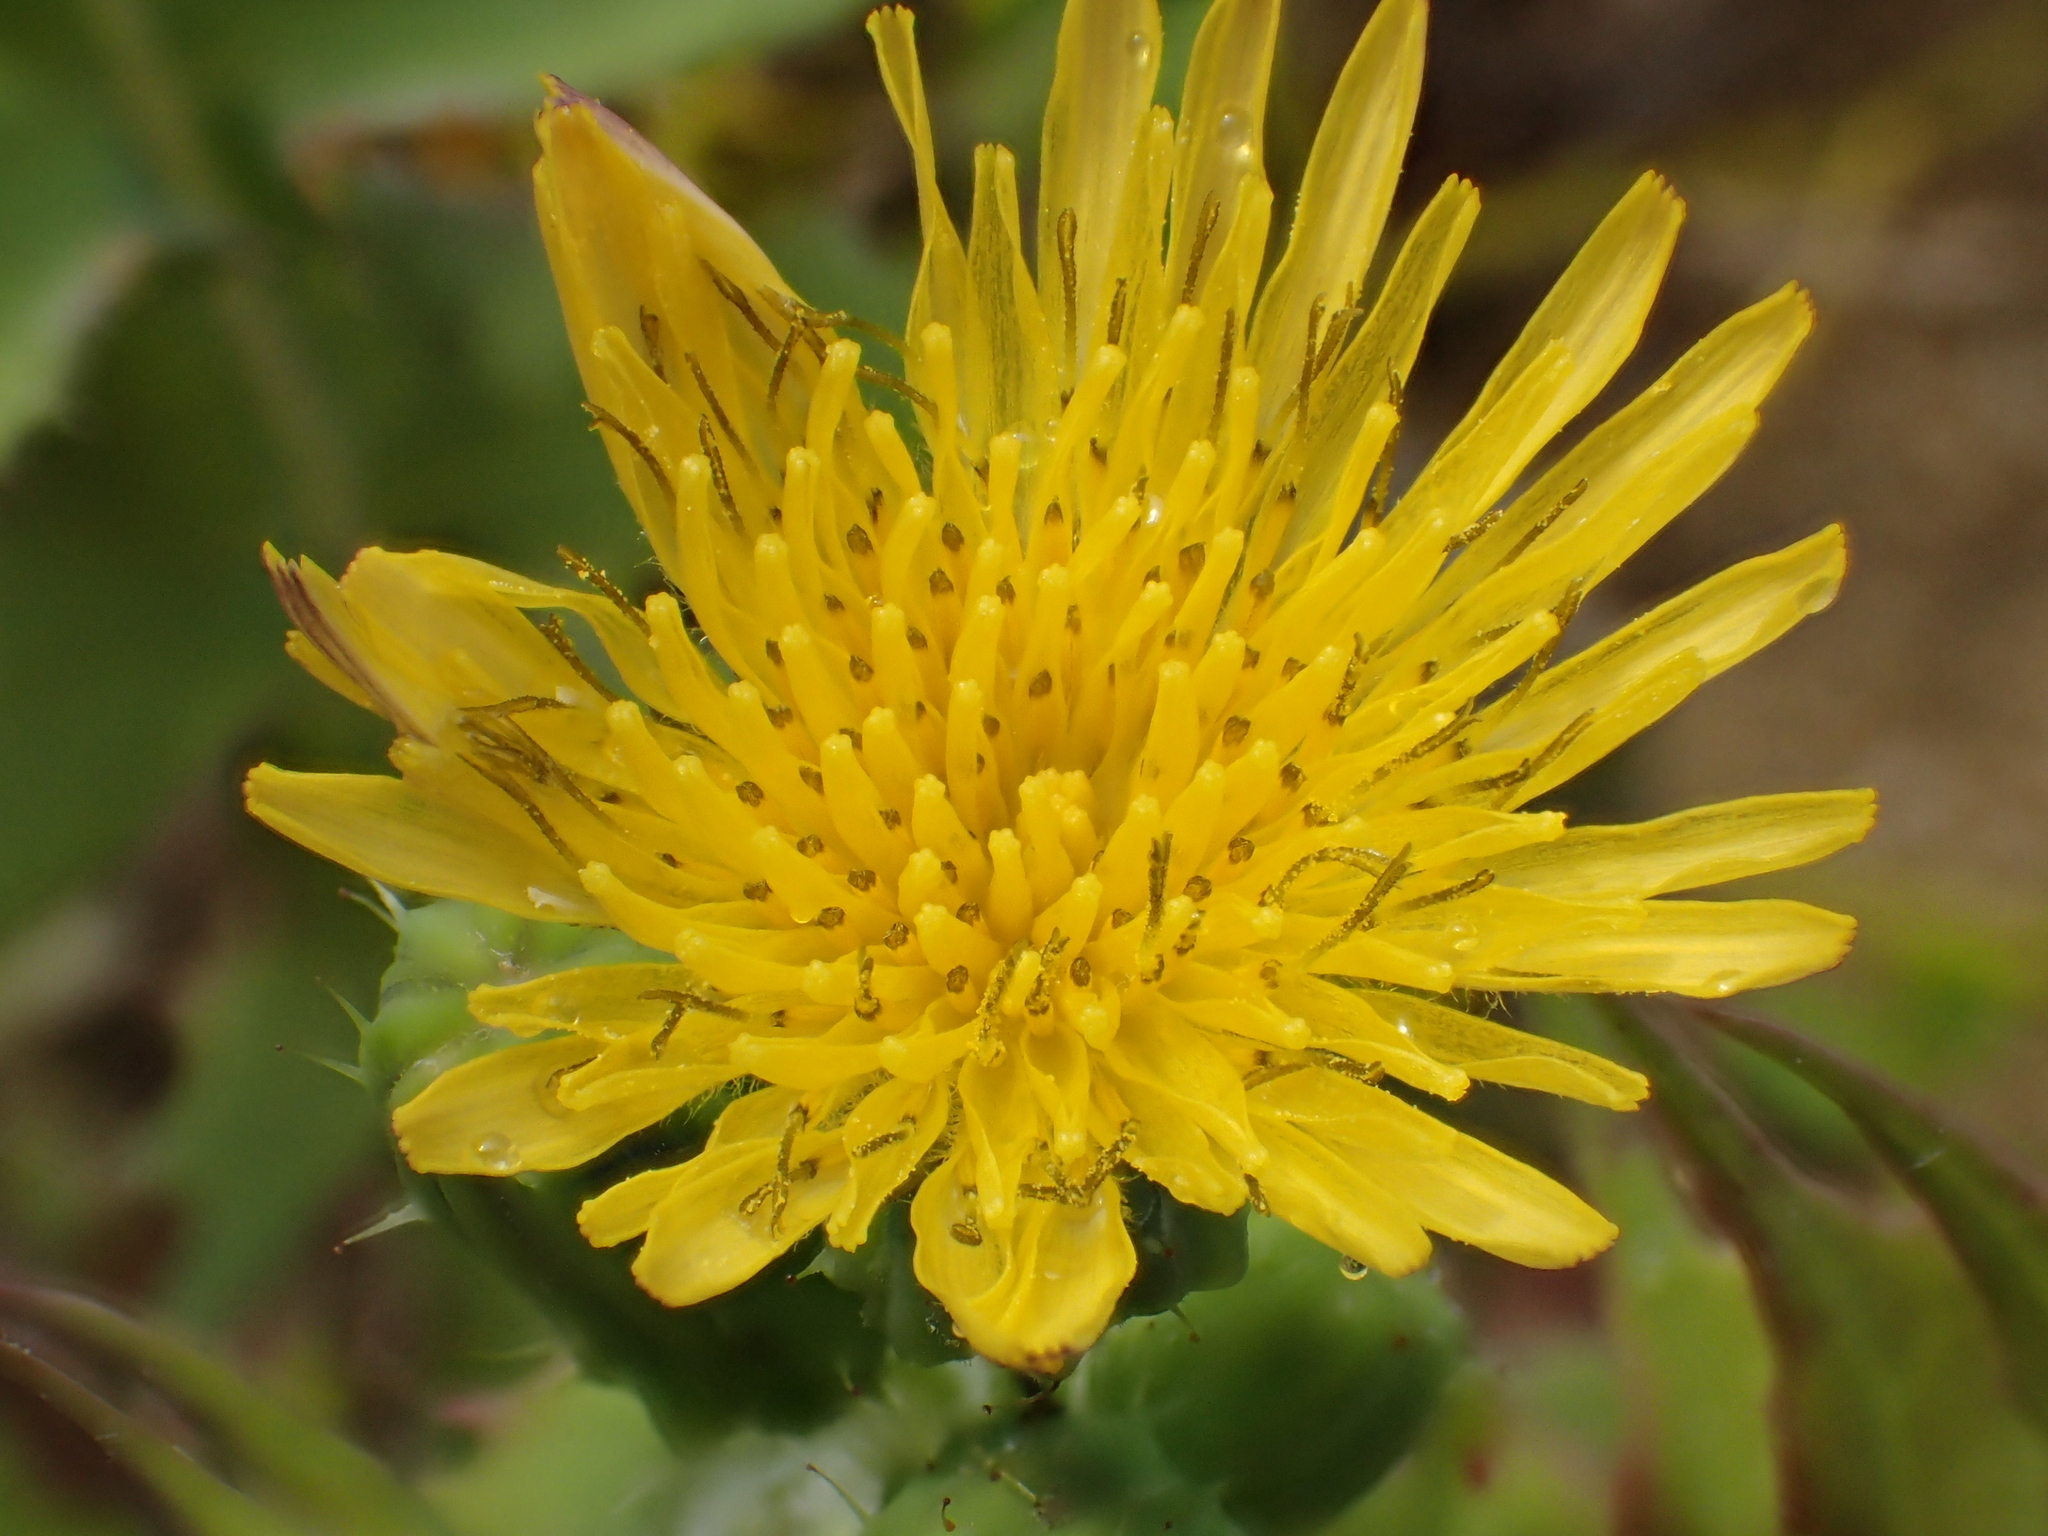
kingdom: Plantae
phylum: Tracheophyta
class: Magnoliopsida
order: Asterales
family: Asteraceae
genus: Sonchus
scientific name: Sonchus oleraceus
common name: Common sowthistle
